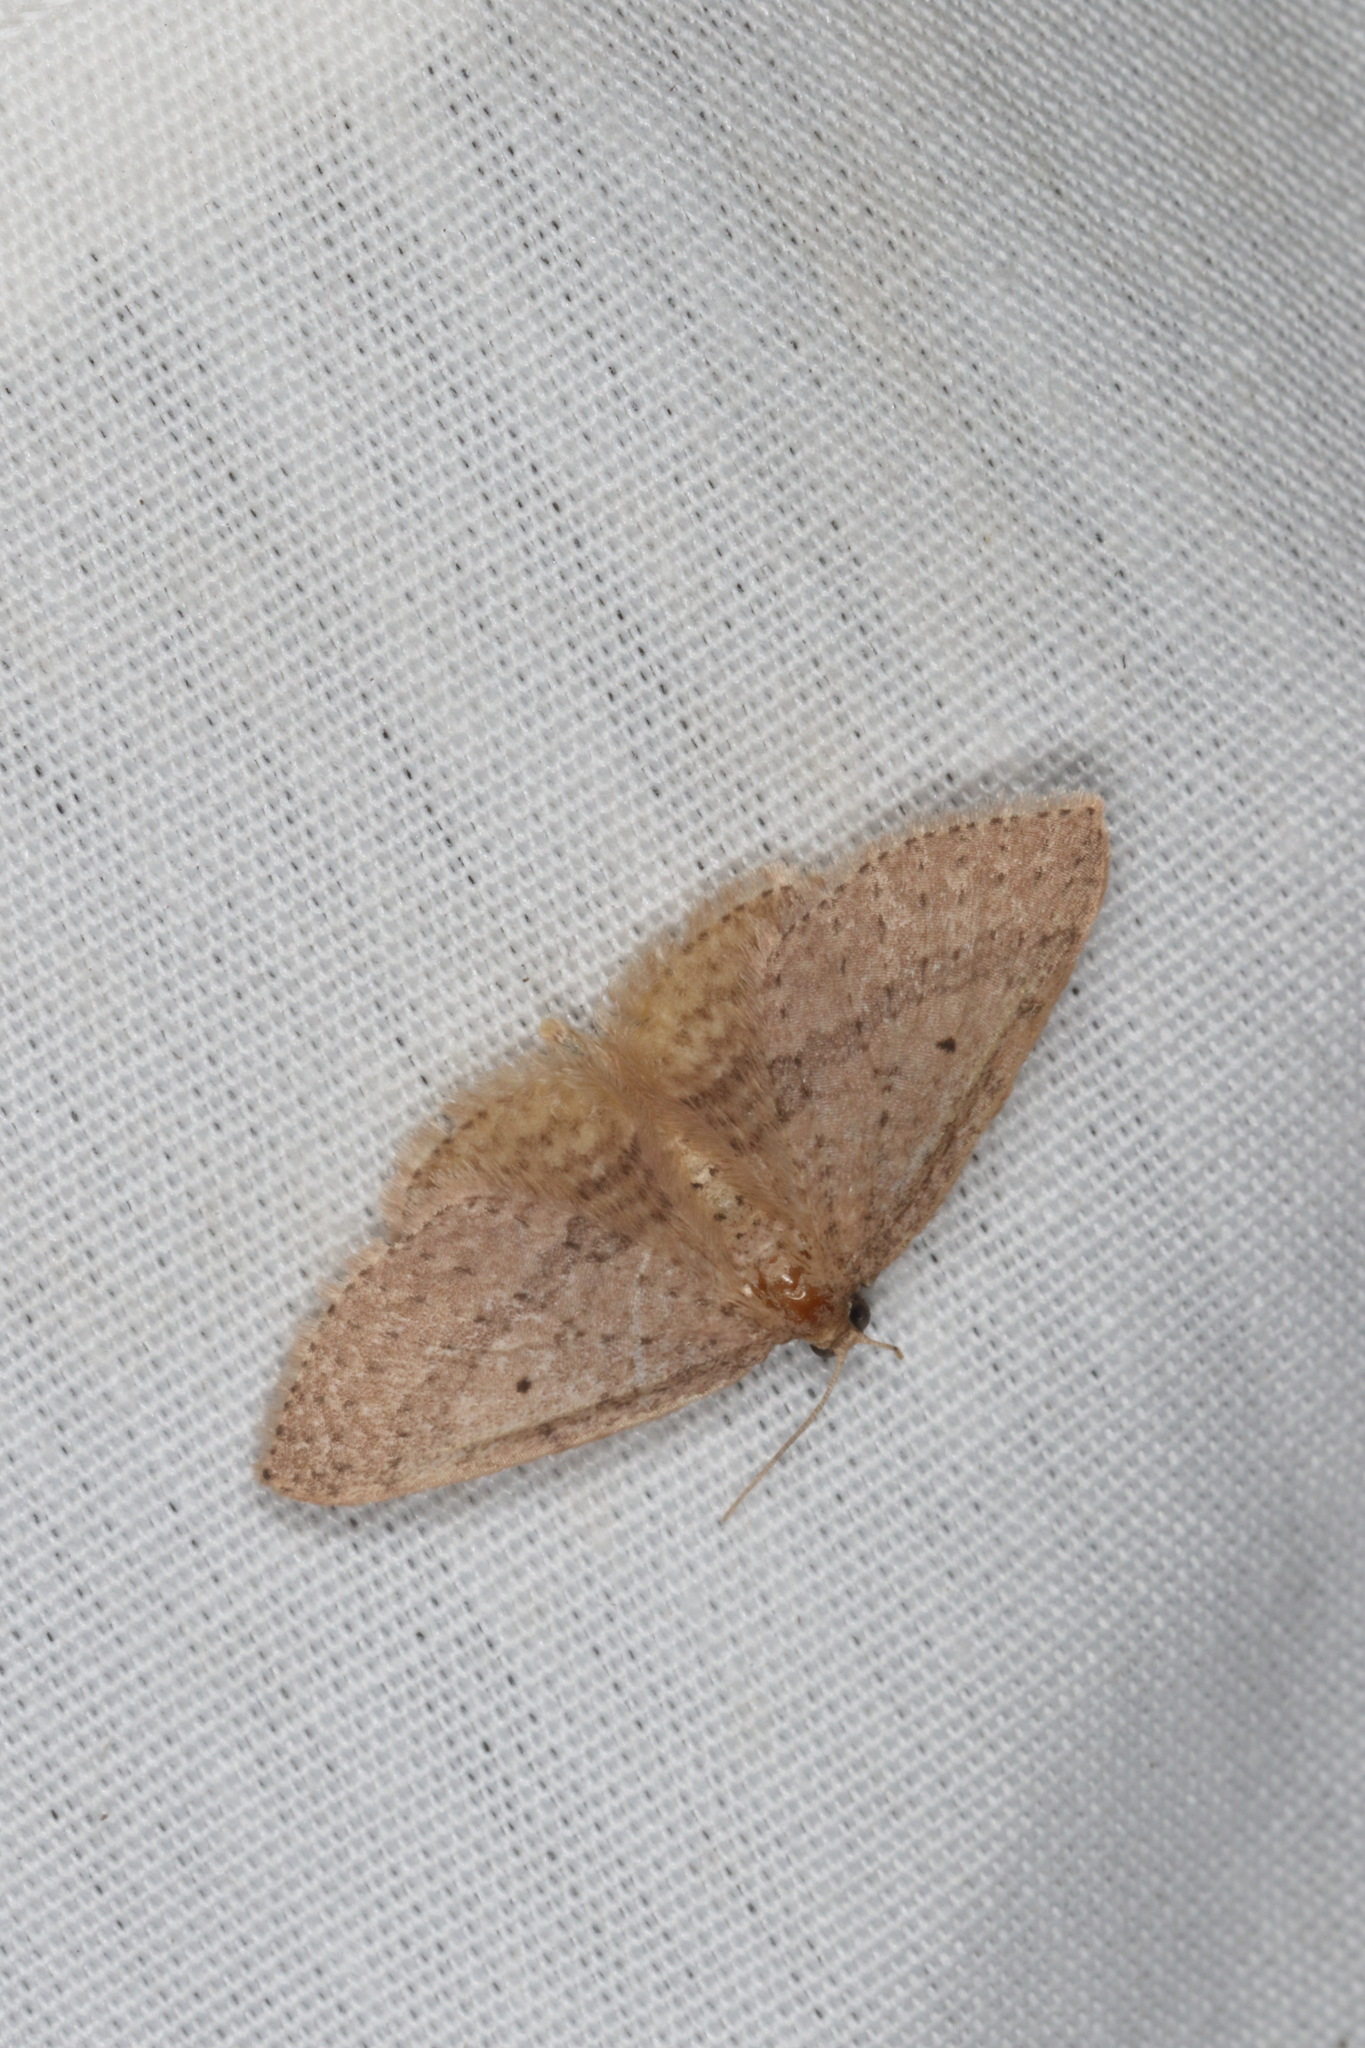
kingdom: Animalia
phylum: Arthropoda
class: Insecta
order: Lepidoptera
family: Geometridae
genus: Poecilasthena
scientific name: Poecilasthena schistaria
